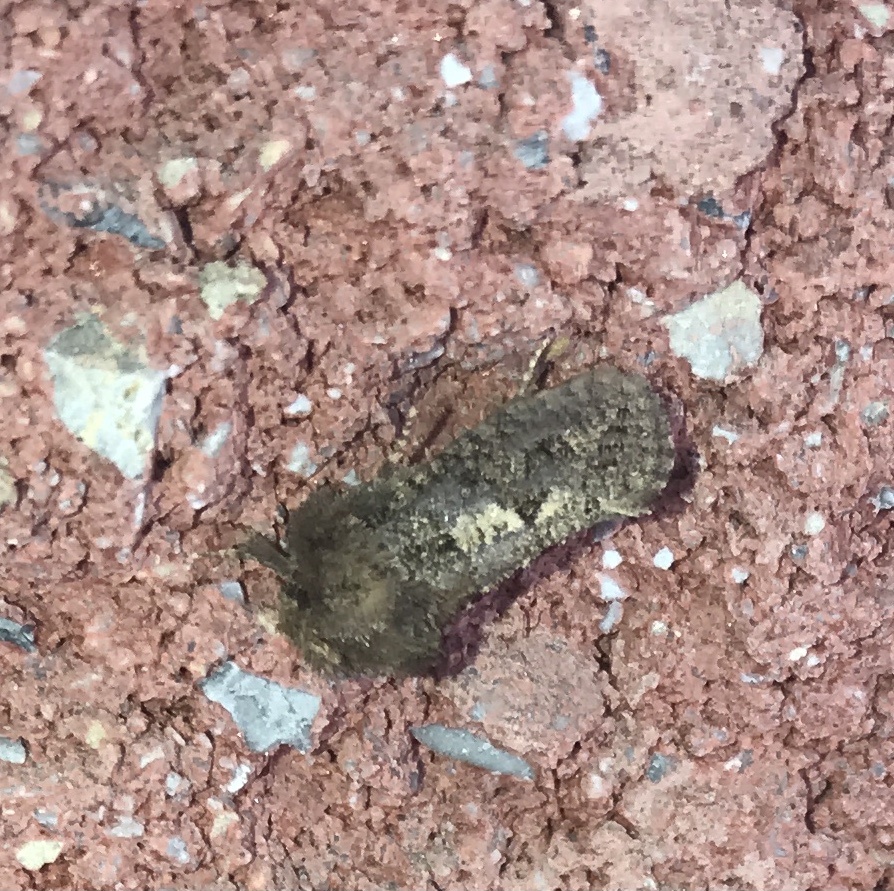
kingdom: Animalia
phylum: Arthropoda
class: Insecta
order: Lepidoptera
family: Tineidae
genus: Acrolophus
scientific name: Acrolophus arcanella
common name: Arcane grass tubeworm moth
